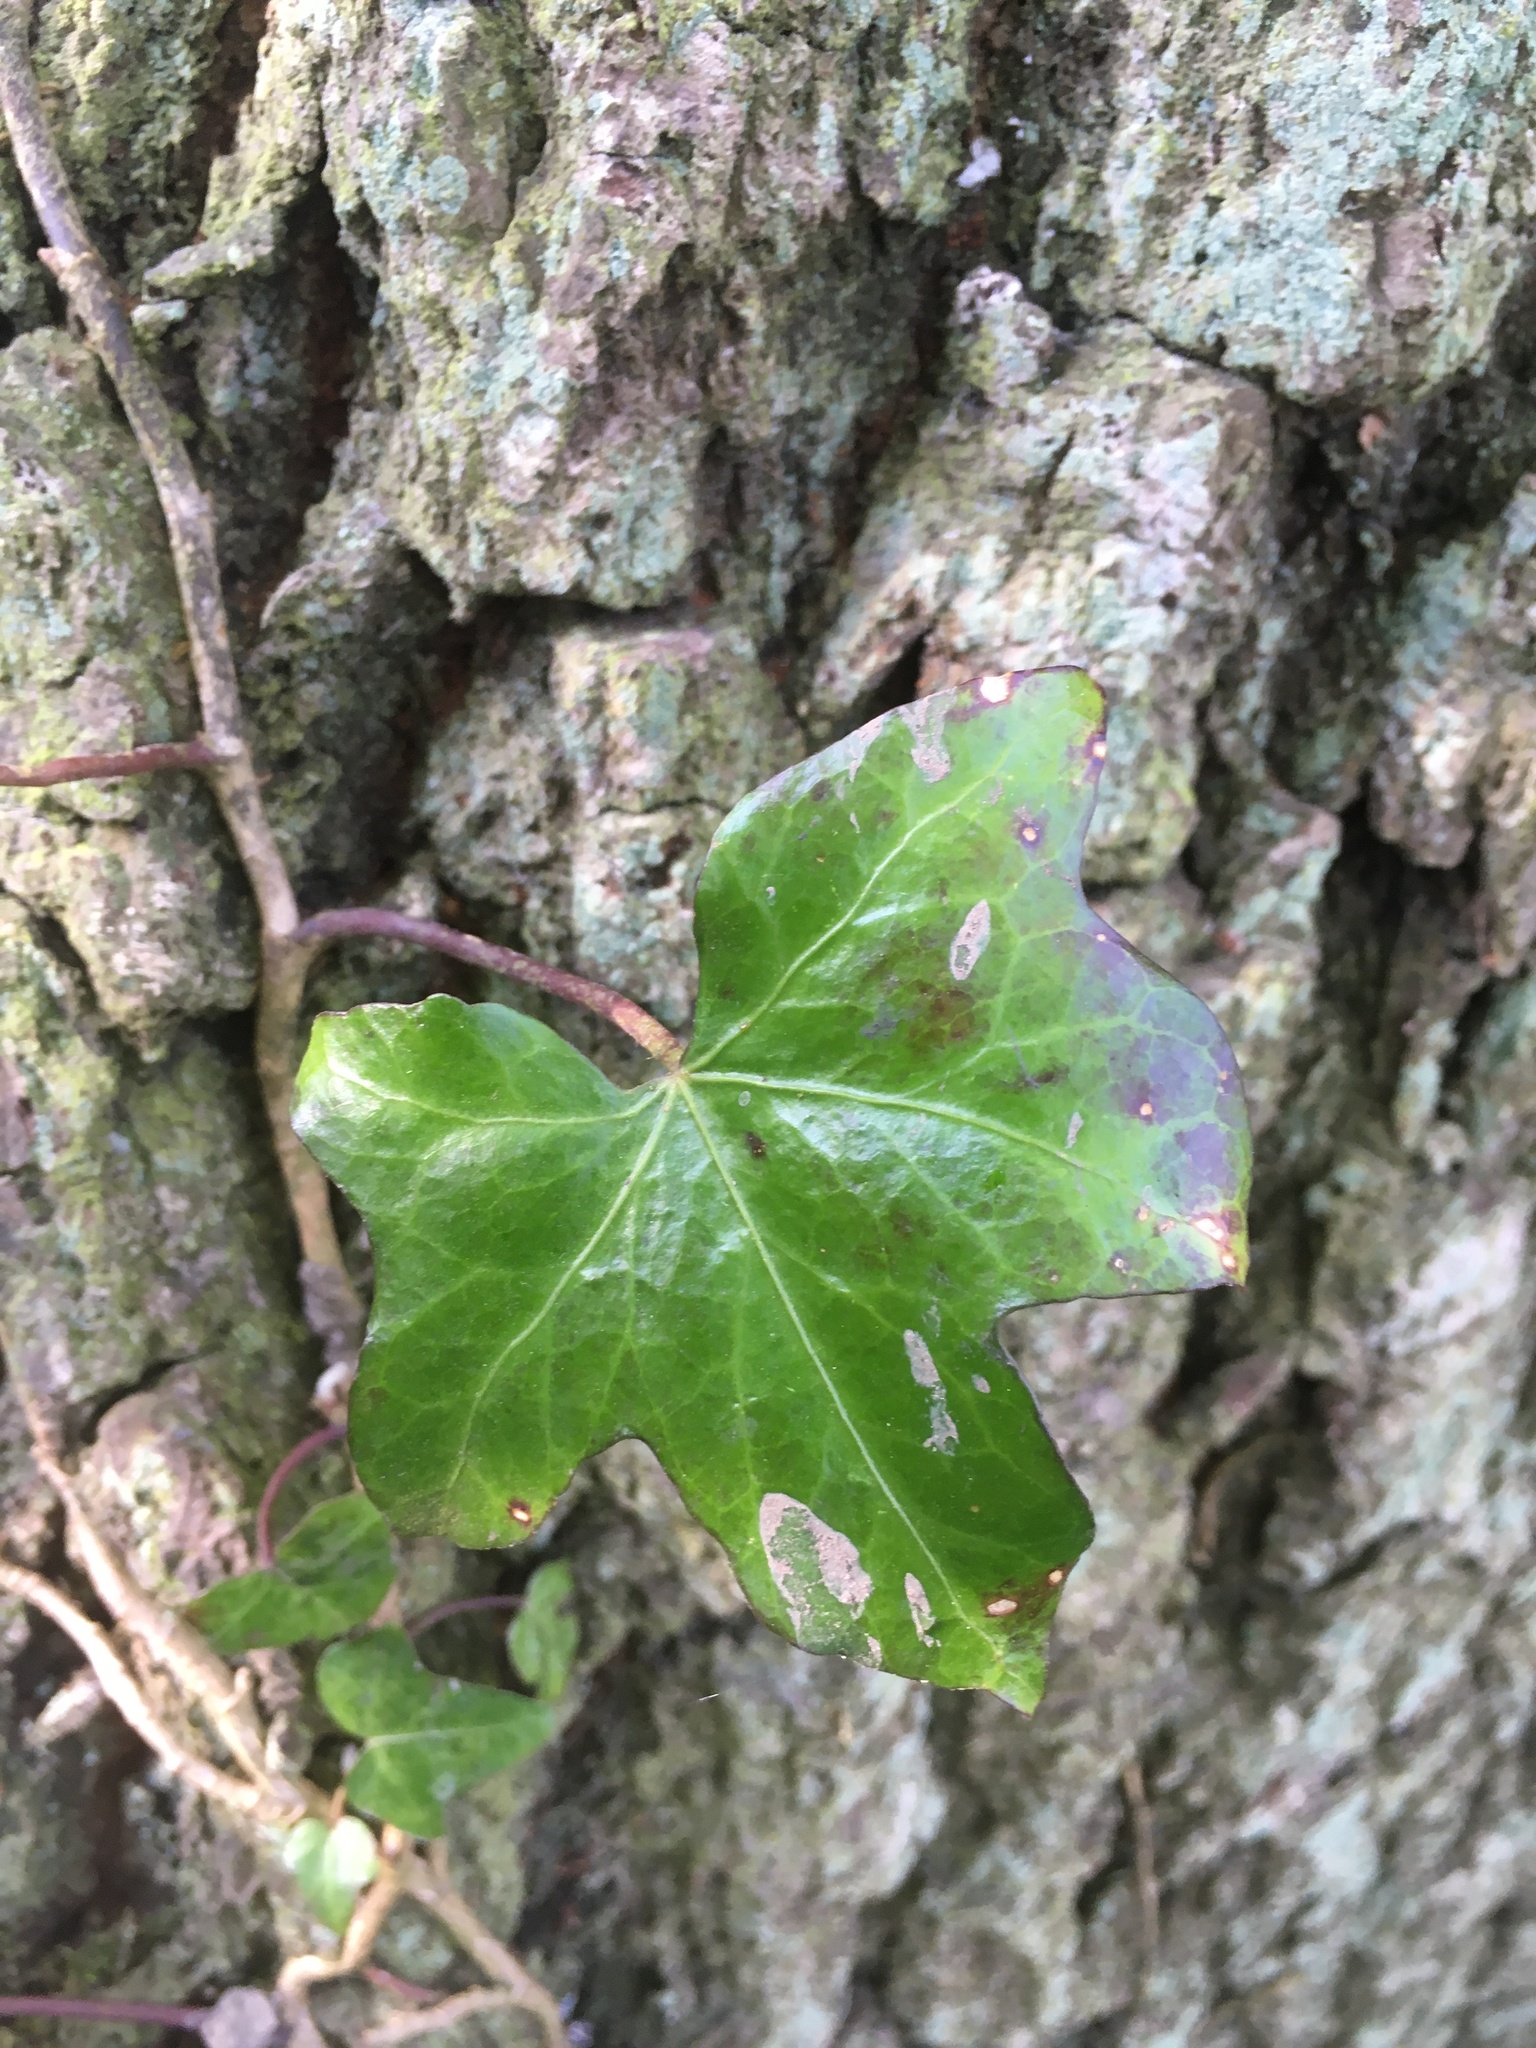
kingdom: Plantae
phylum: Tracheophyta
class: Magnoliopsida
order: Apiales
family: Araliaceae
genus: Hedera
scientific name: Hedera helix
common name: Ivy
